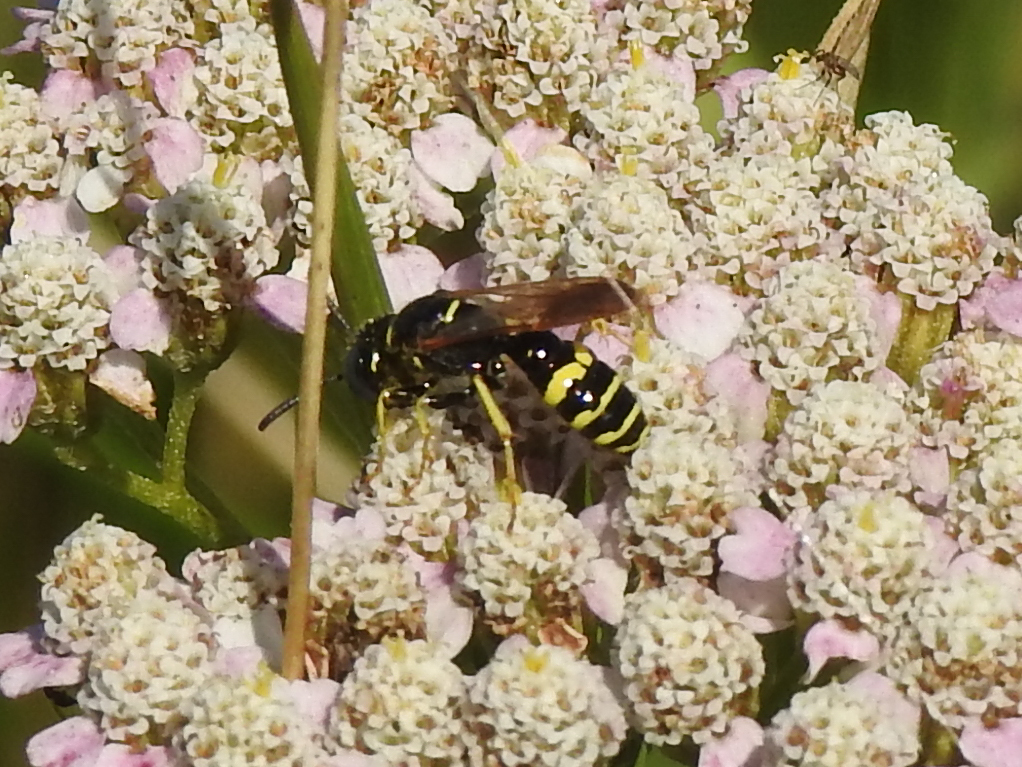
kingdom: Animalia
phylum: Arthropoda
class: Insecta
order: Hymenoptera
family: Crabronidae
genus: Philanthus
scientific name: Philanthus bilunatus
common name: Two moons beewolf
